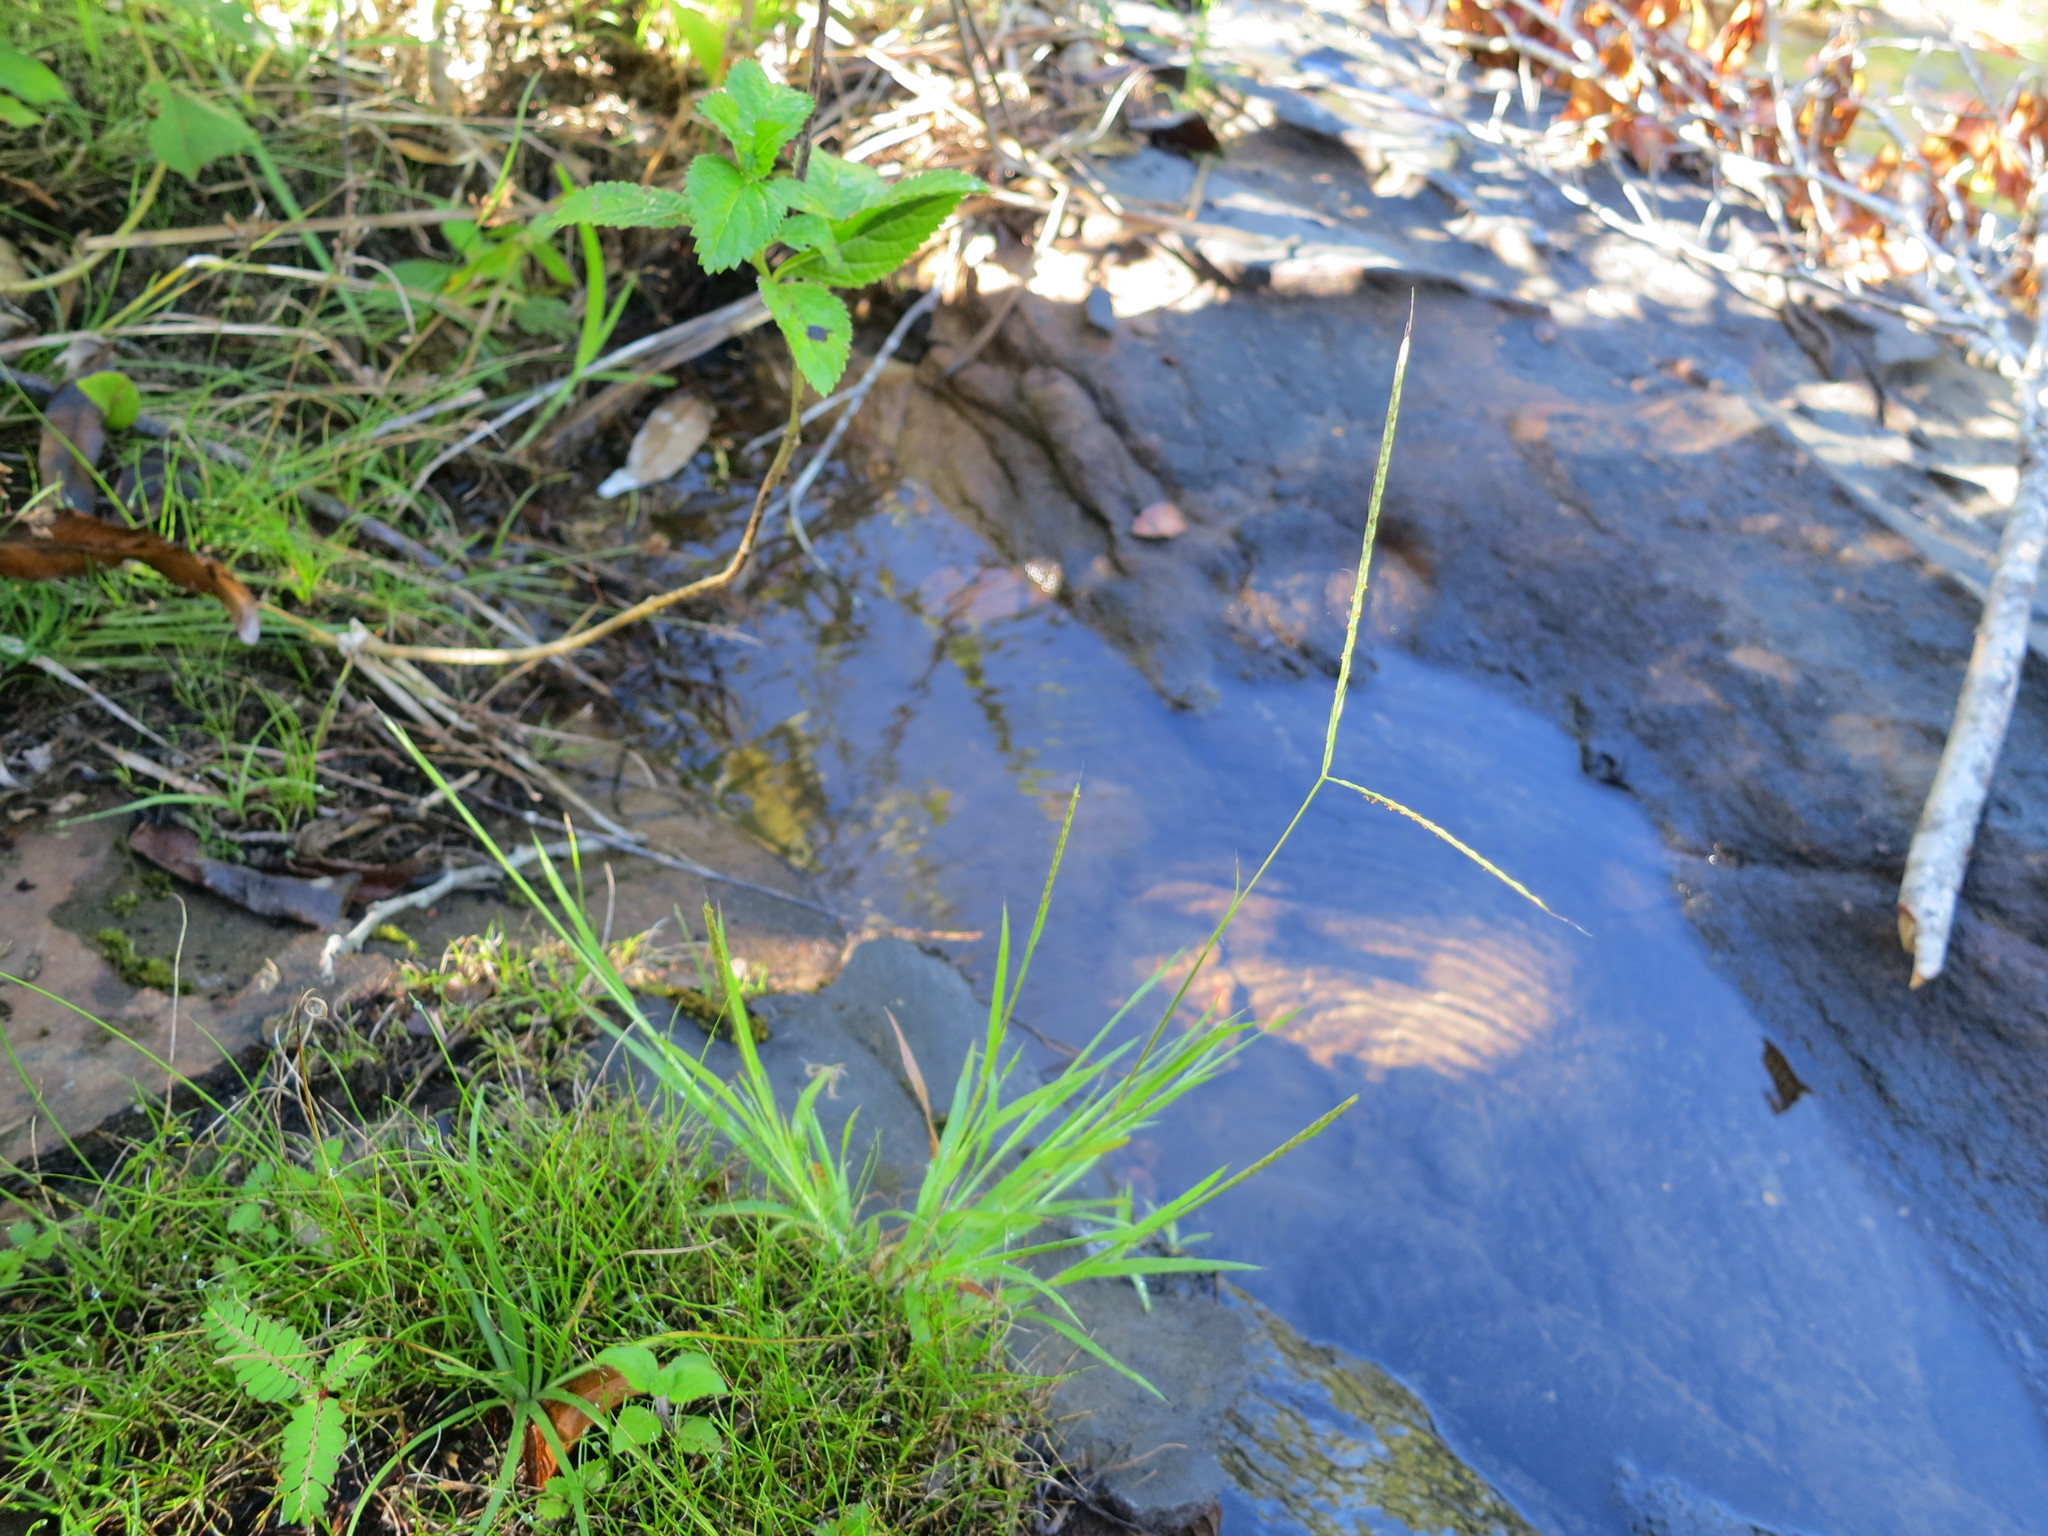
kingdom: Plantae
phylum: Tracheophyta
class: Liliopsida
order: Poales
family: Poaceae
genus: Dimeria
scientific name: Dimeria manongarivensis
